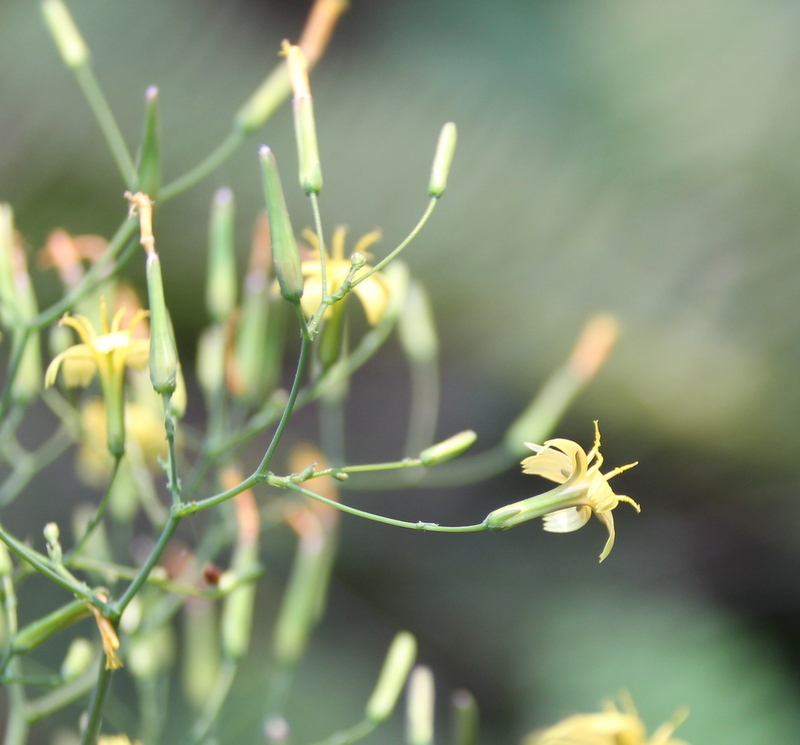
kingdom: Plantae
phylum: Tracheophyta
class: Magnoliopsida
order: Asterales
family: Asteraceae
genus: Mycelis
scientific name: Mycelis muralis
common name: Wall lettuce
